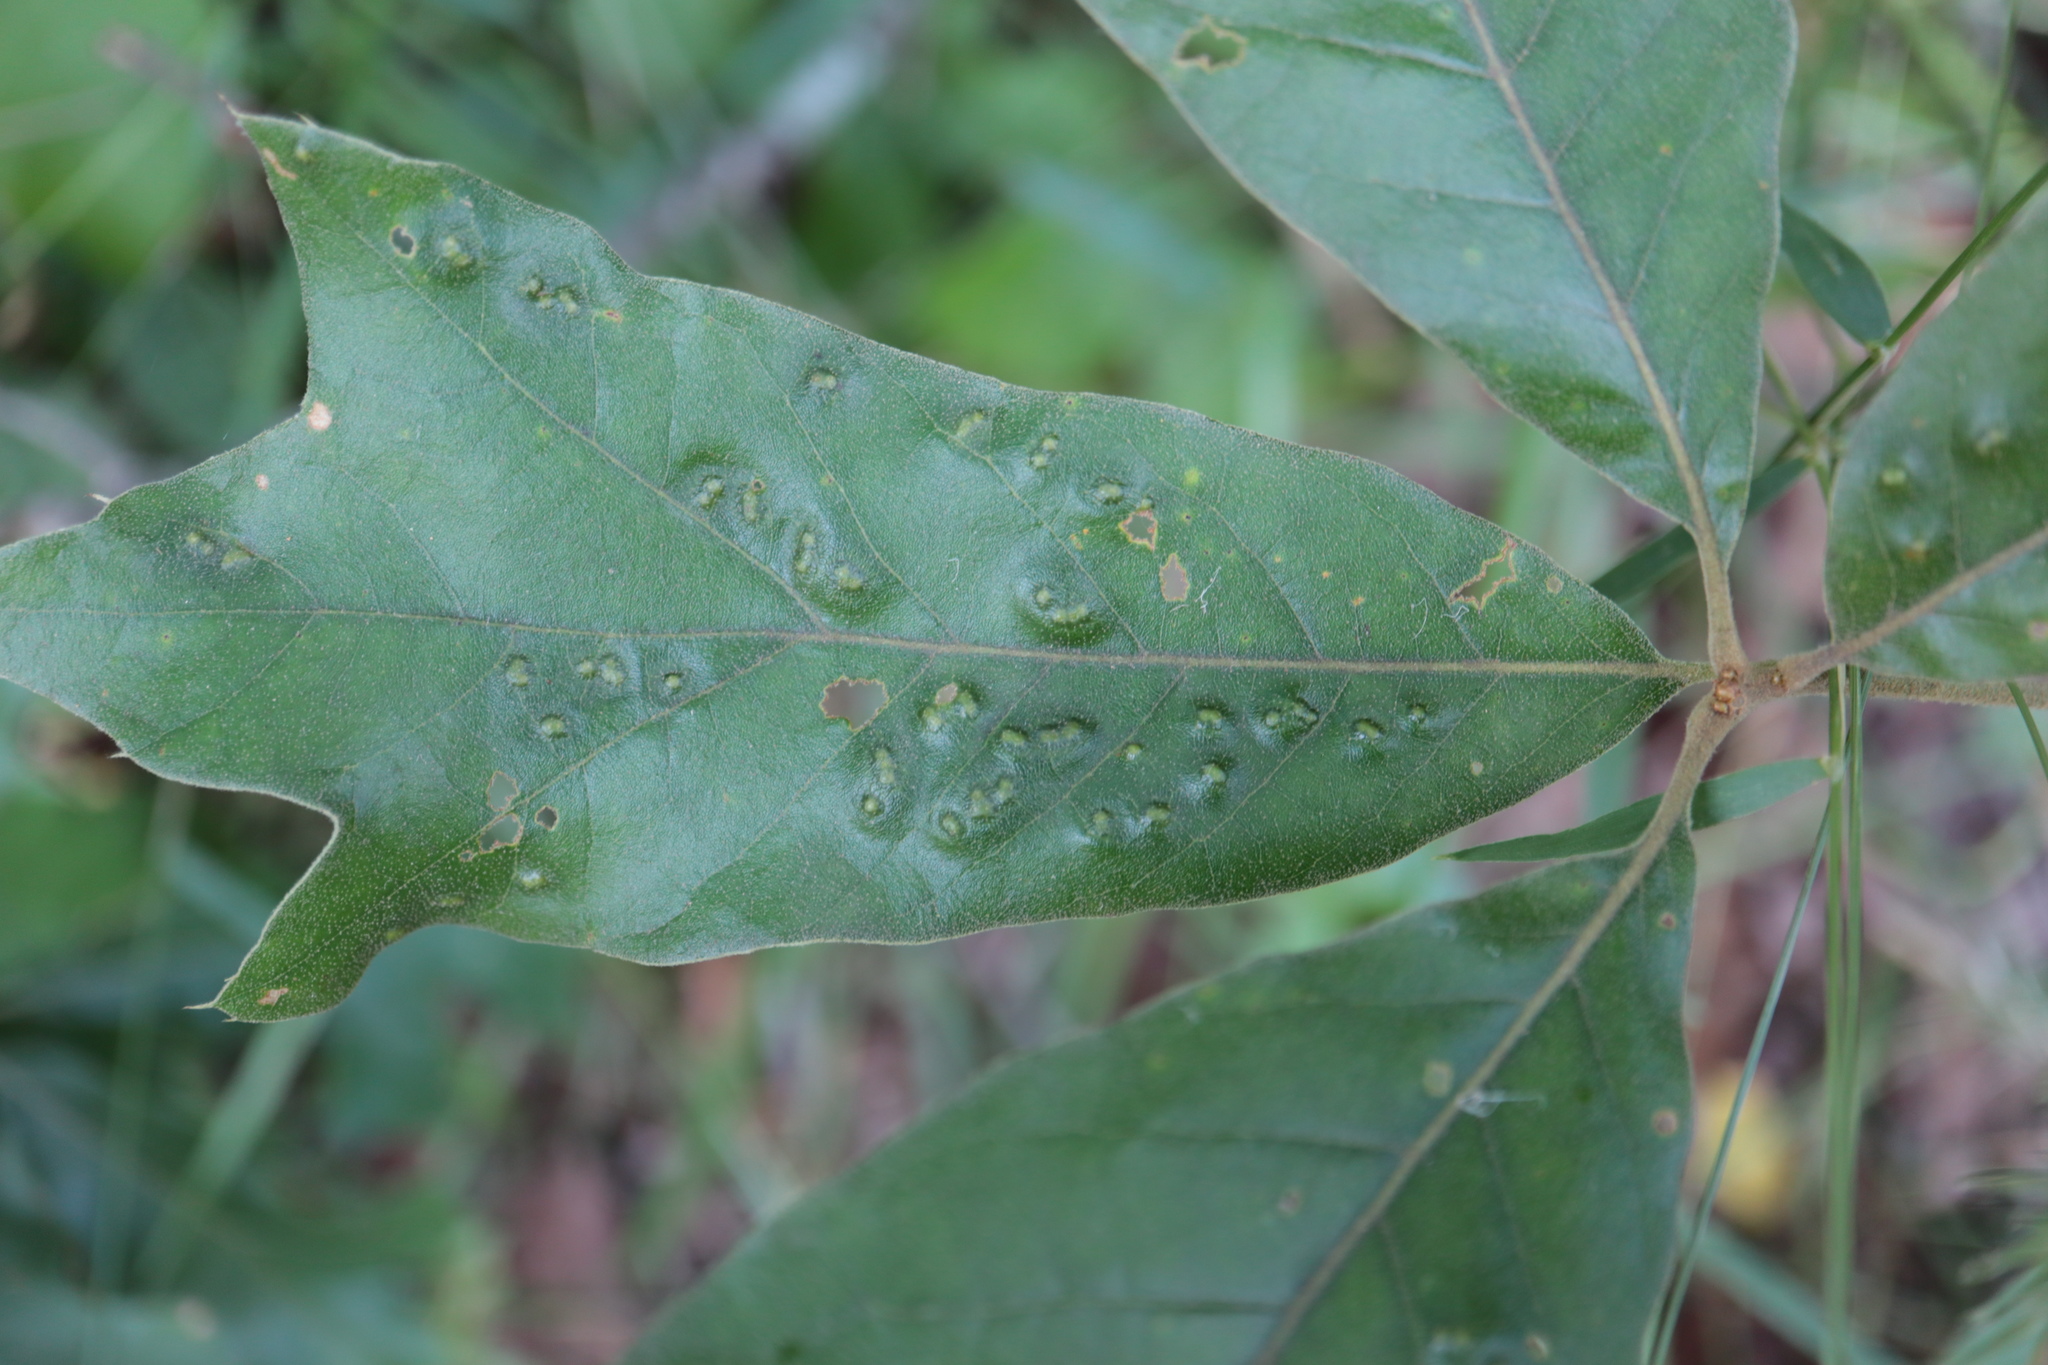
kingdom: Animalia
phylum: Arthropoda
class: Insecta
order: Hymenoptera
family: Cynipidae
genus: Callirhytis
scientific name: Callirhytis
